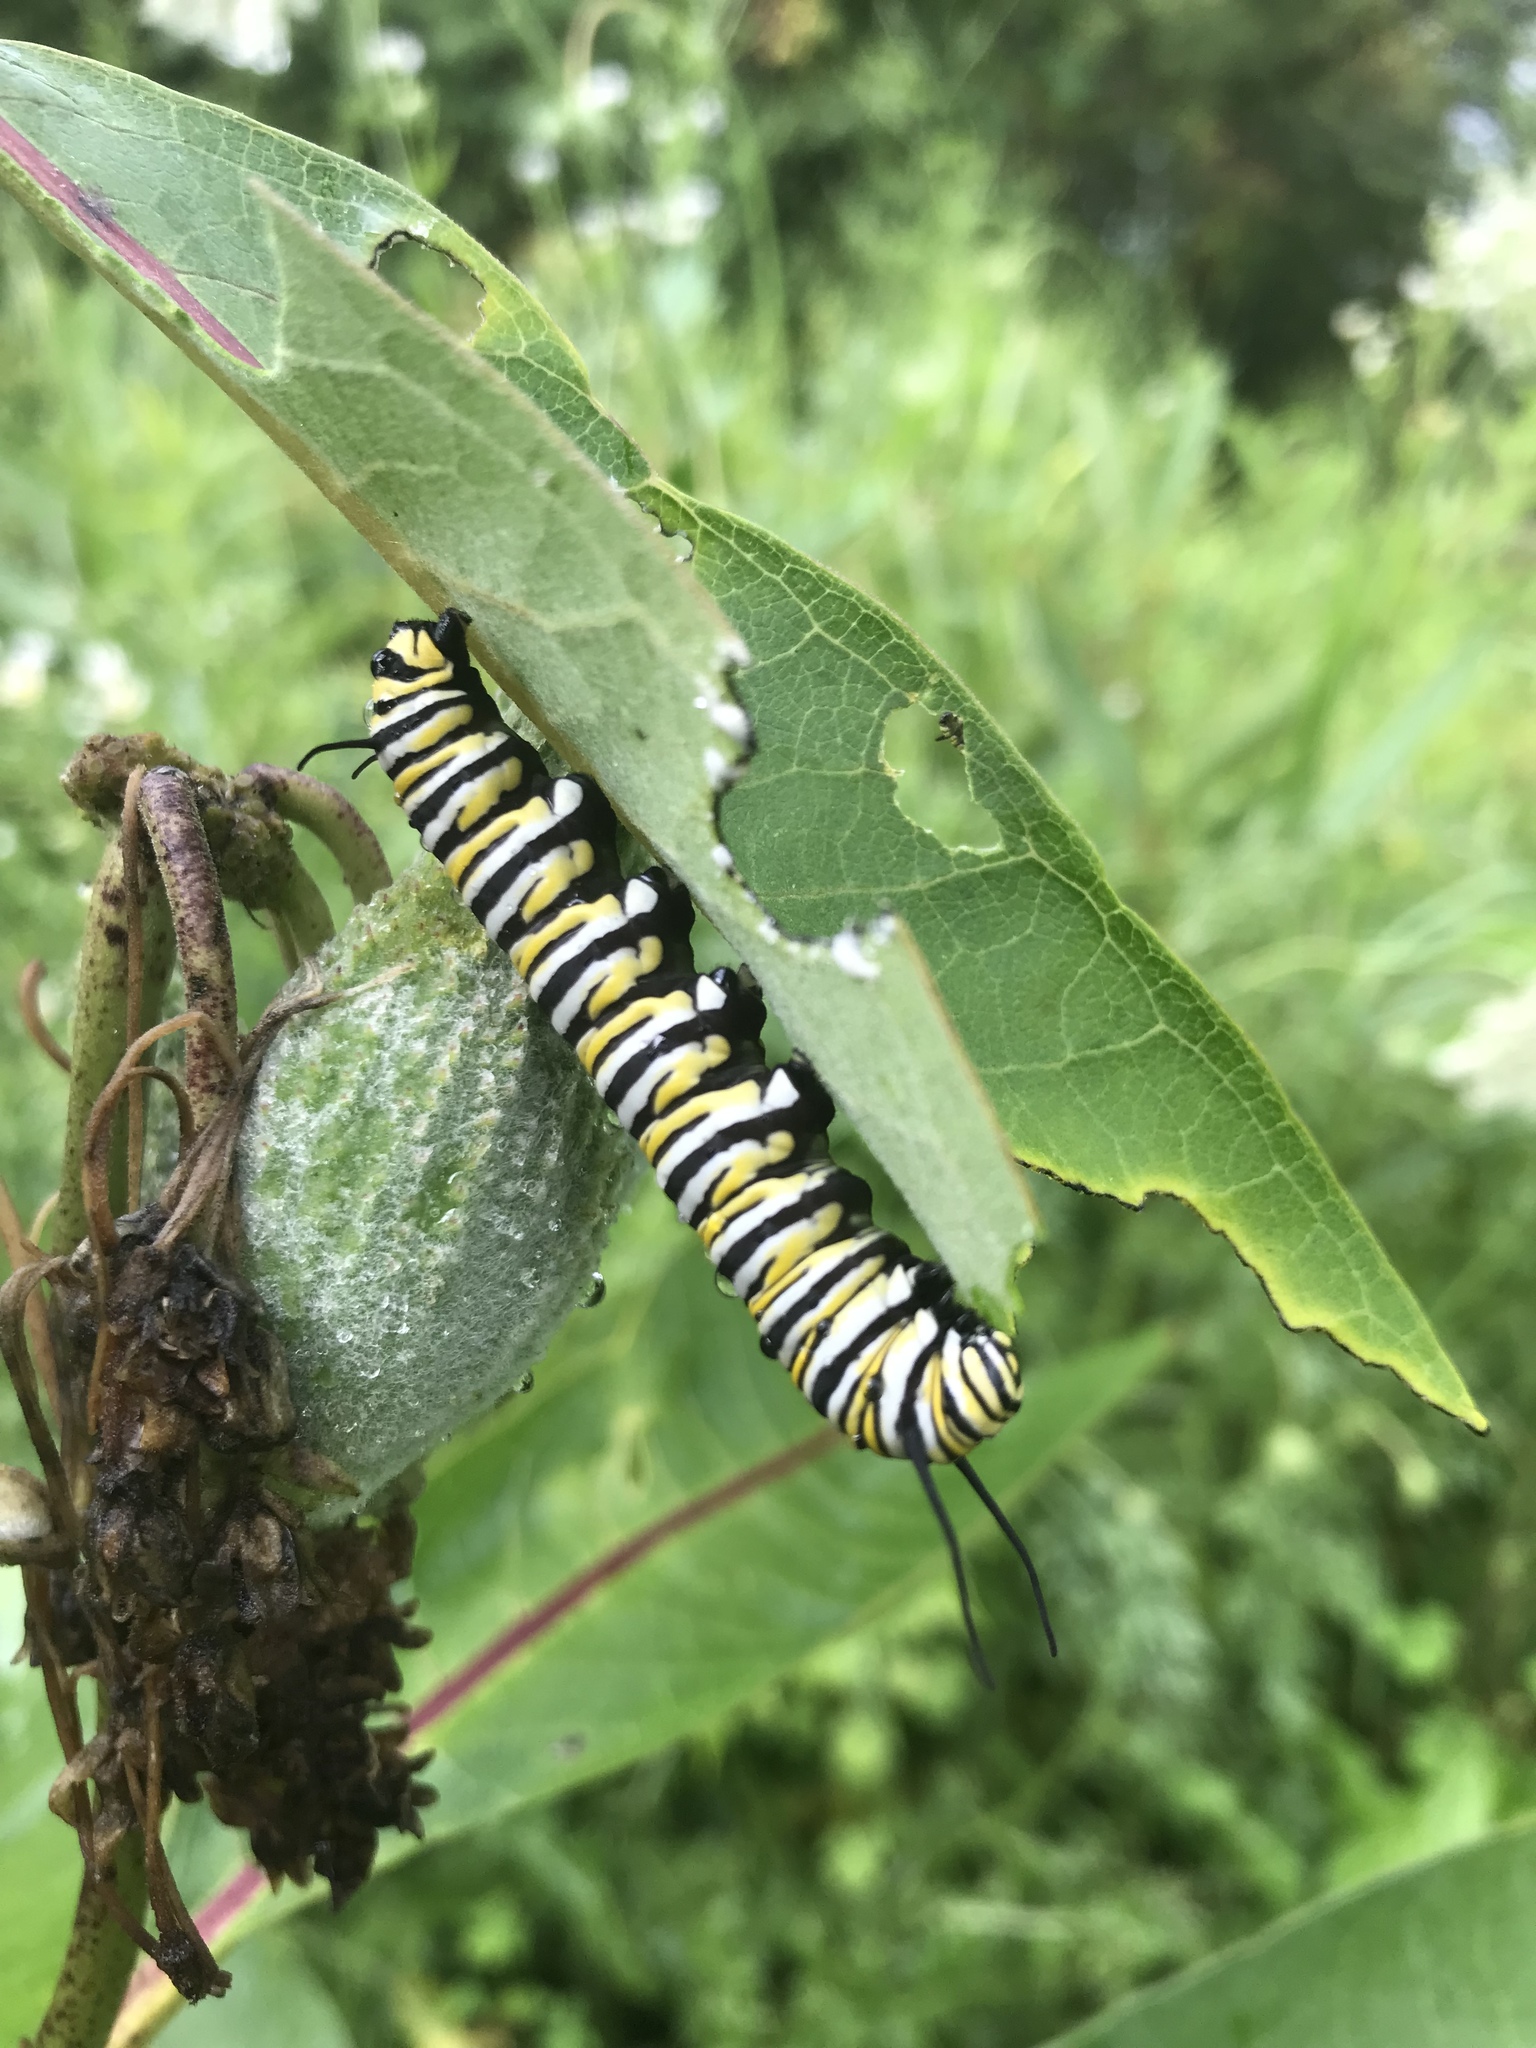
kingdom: Animalia
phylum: Arthropoda
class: Insecta
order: Lepidoptera
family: Nymphalidae
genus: Danaus
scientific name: Danaus plexippus
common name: Monarch
